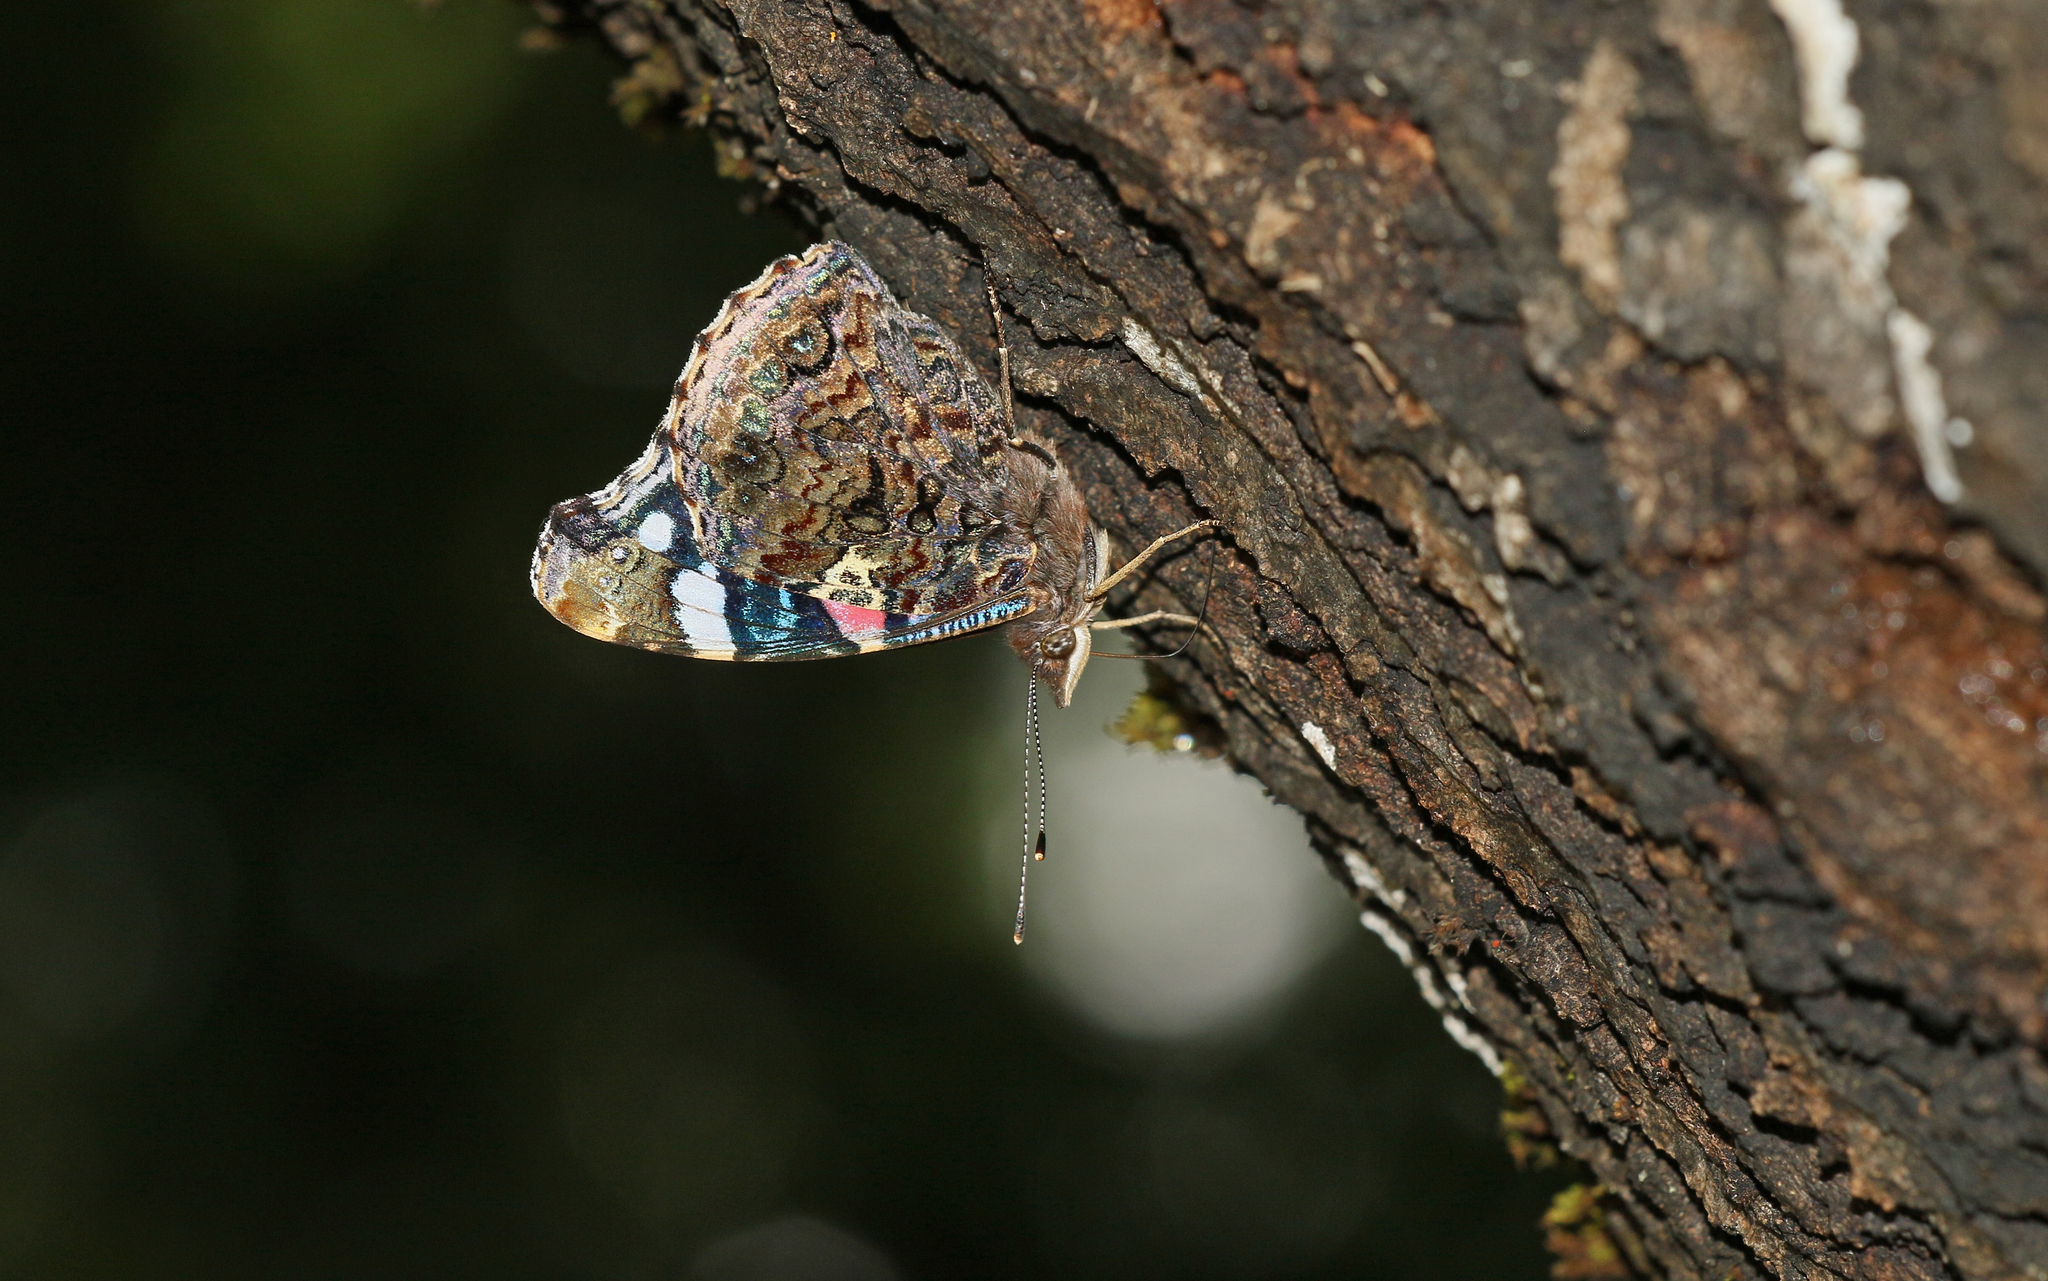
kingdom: Animalia
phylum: Arthropoda
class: Insecta
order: Lepidoptera
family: Nymphalidae
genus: Vanessa
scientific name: Vanessa atalanta
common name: Red admiral
